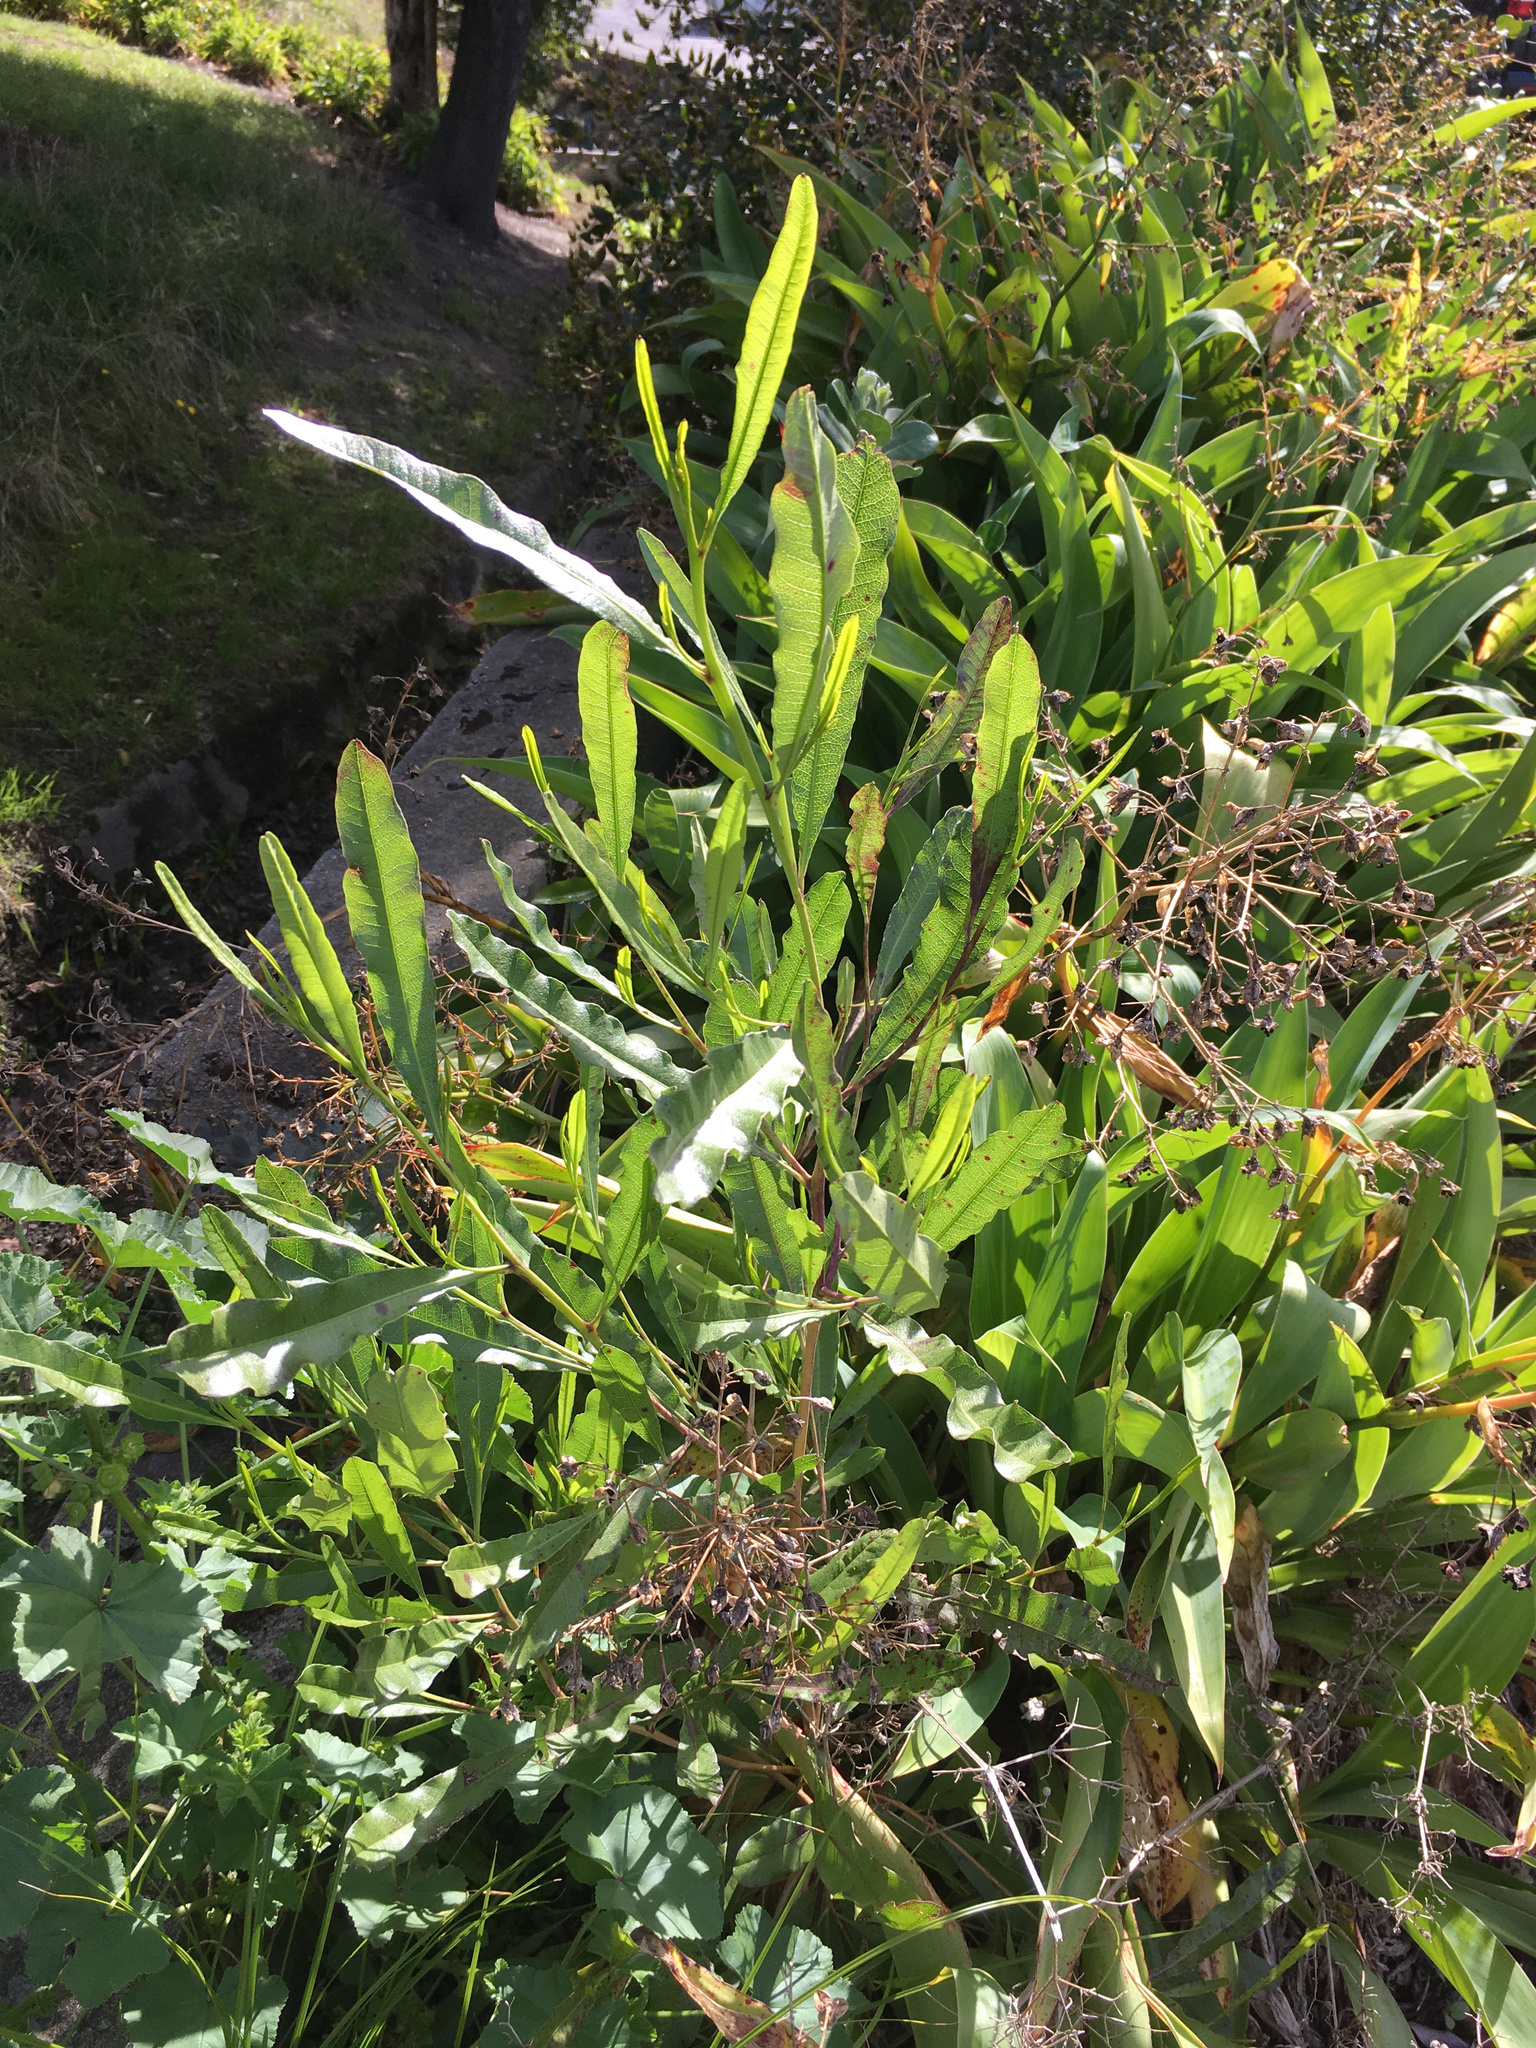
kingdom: Plantae
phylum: Tracheophyta
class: Magnoliopsida
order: Sapindales
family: Sapindaceae
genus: Dodonaea
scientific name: Dodonaea viscosa
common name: Hopbush
